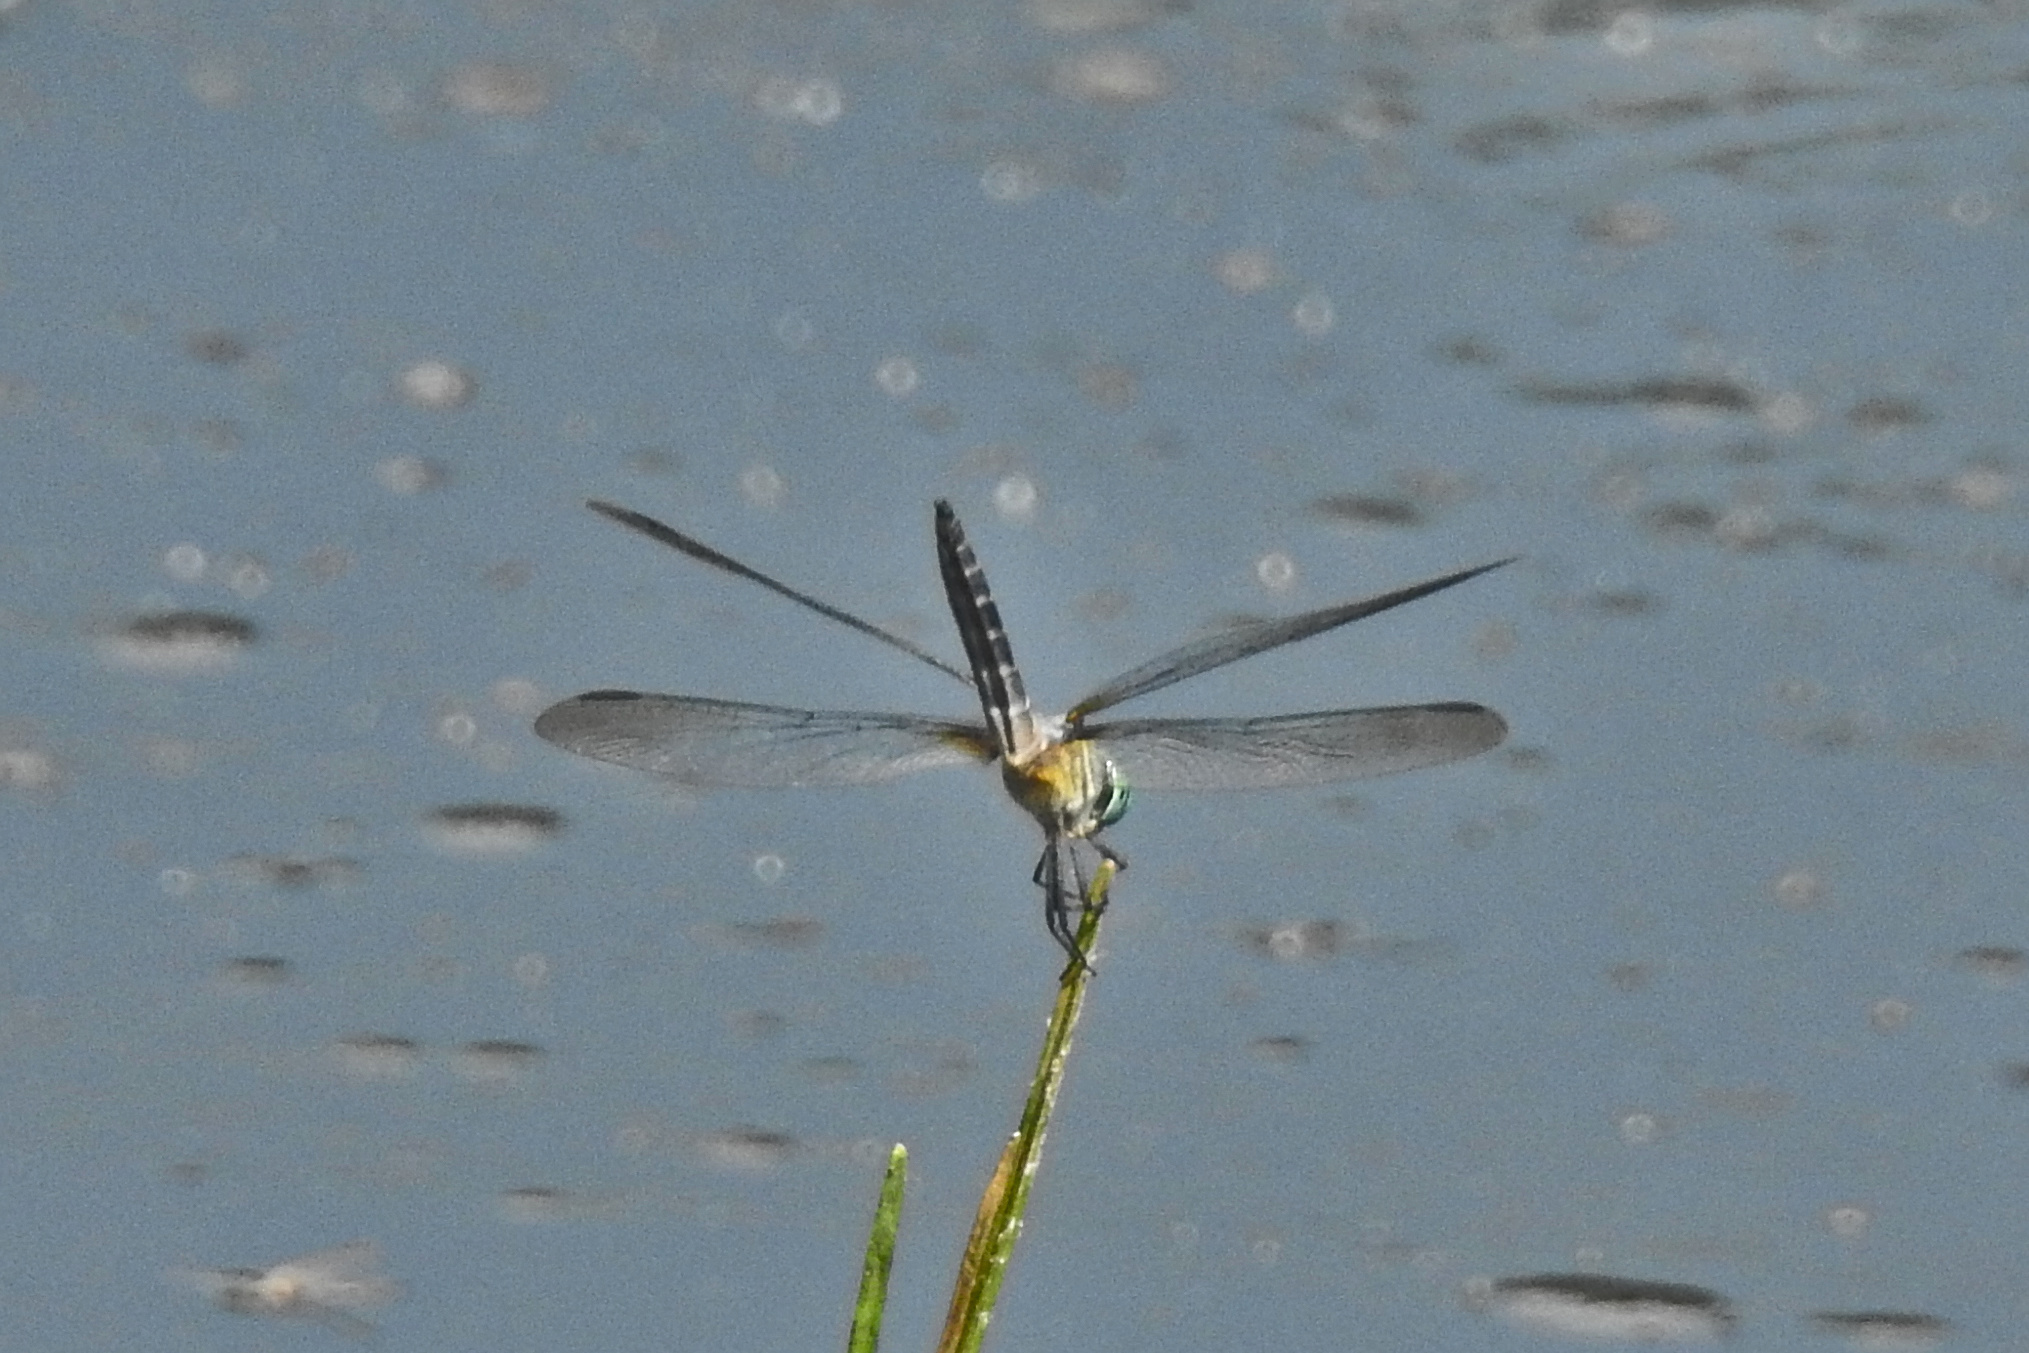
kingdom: Animalia
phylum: Arthropoda
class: Insecta
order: Odonata
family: Libellulidae
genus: Pachydiplax
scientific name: Pachydiplax longipennis
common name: Blue dasher
